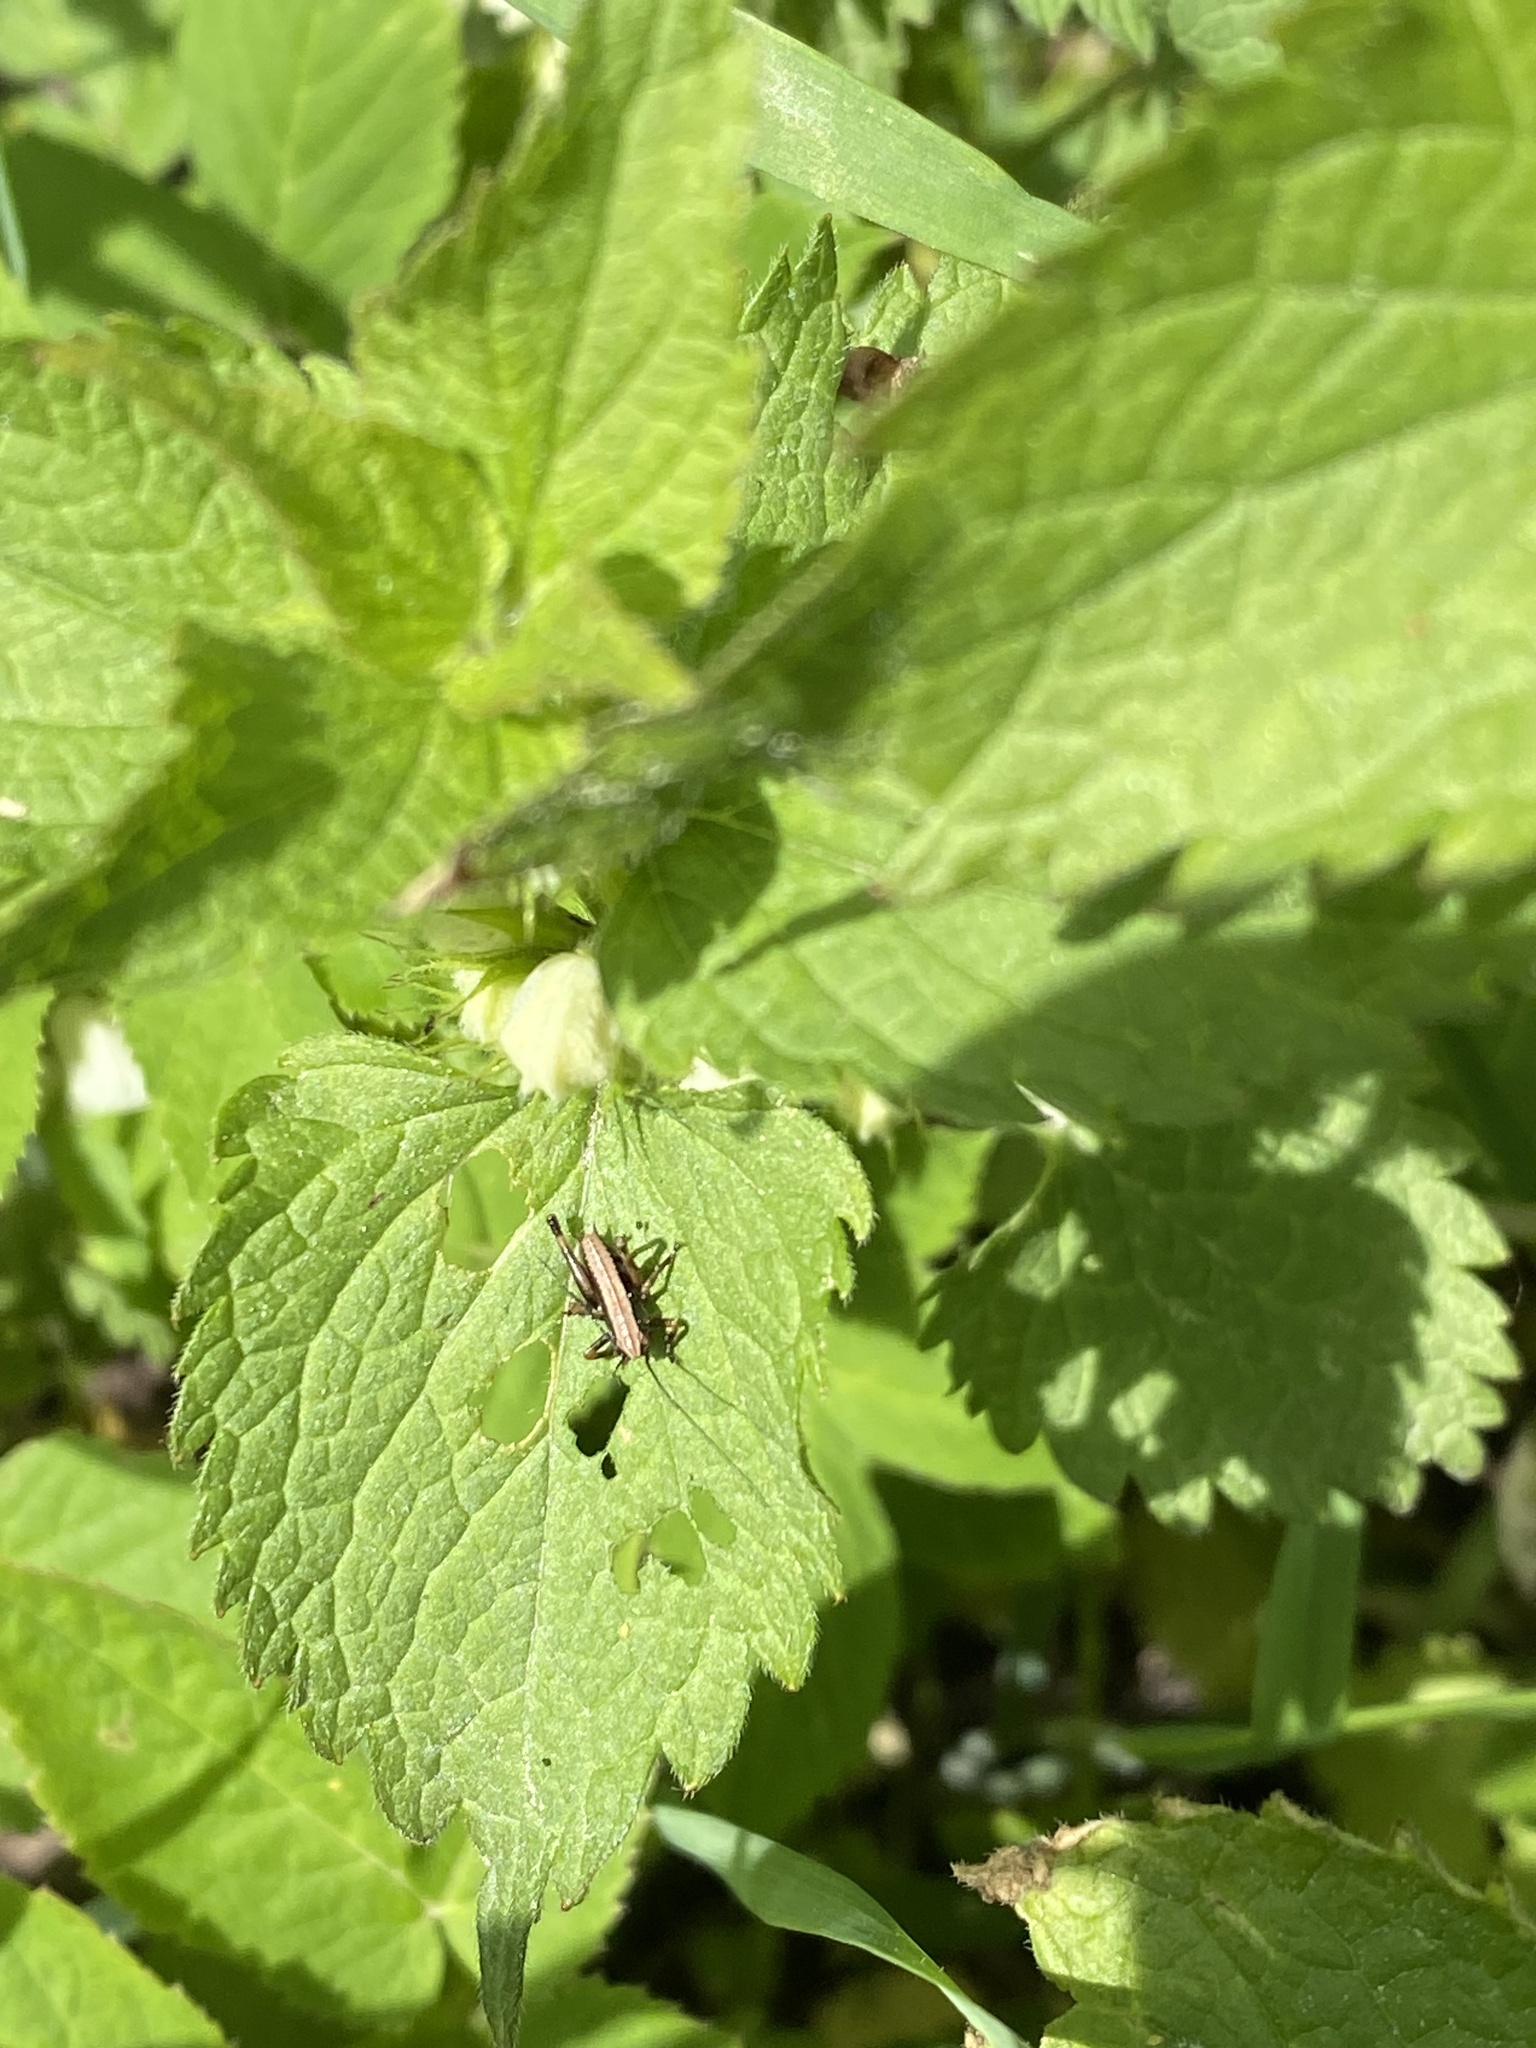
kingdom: Animalia
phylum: Arthropoda
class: Insecta
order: Orthoptera
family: Tettigoniidae
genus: Pholidoptera
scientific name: Pholidoptera griseoaptera
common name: Dark bush-cricket
